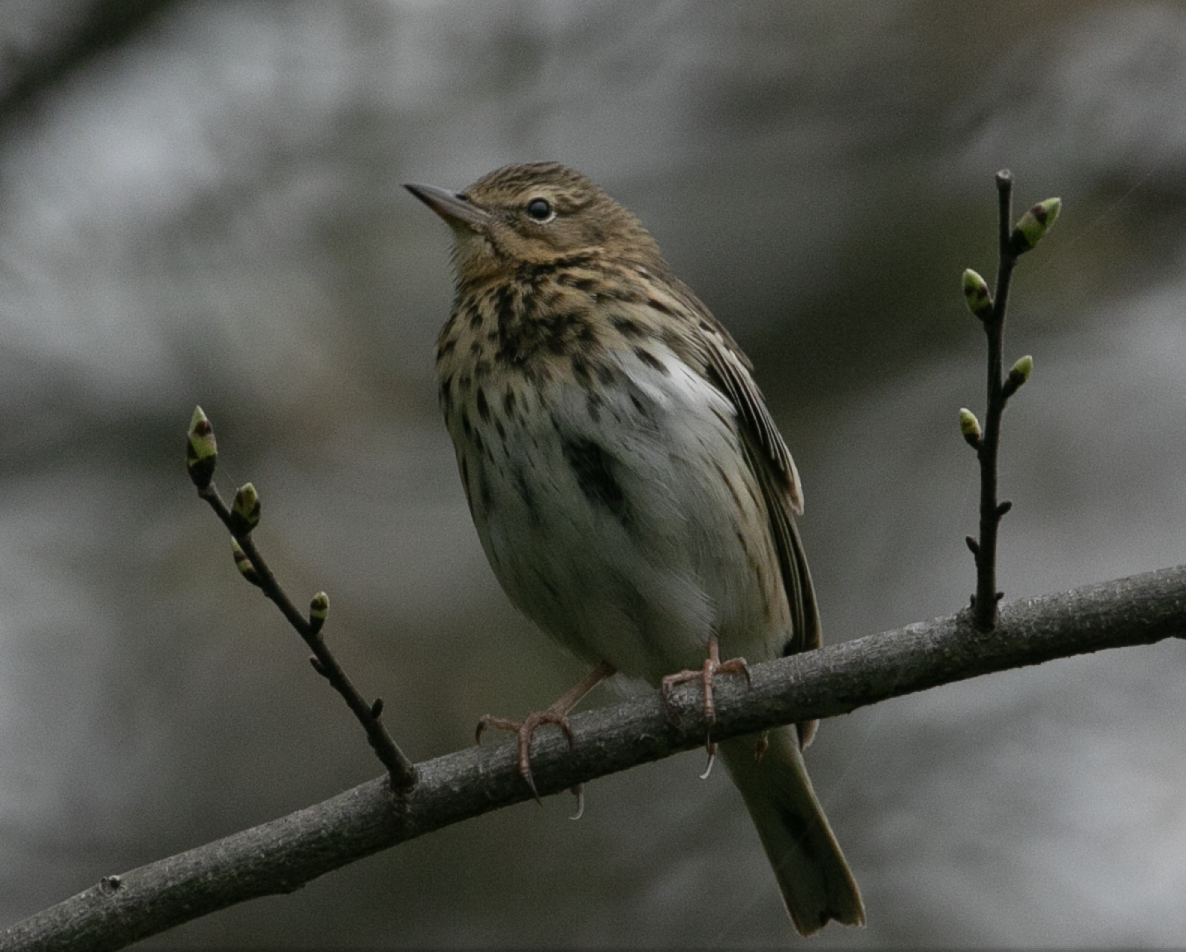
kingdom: Animalia
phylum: Chordata
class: Aves
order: Passeriformes
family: Motacillidae
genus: Anthus
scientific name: Anthus trivialis
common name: Tree pipit
